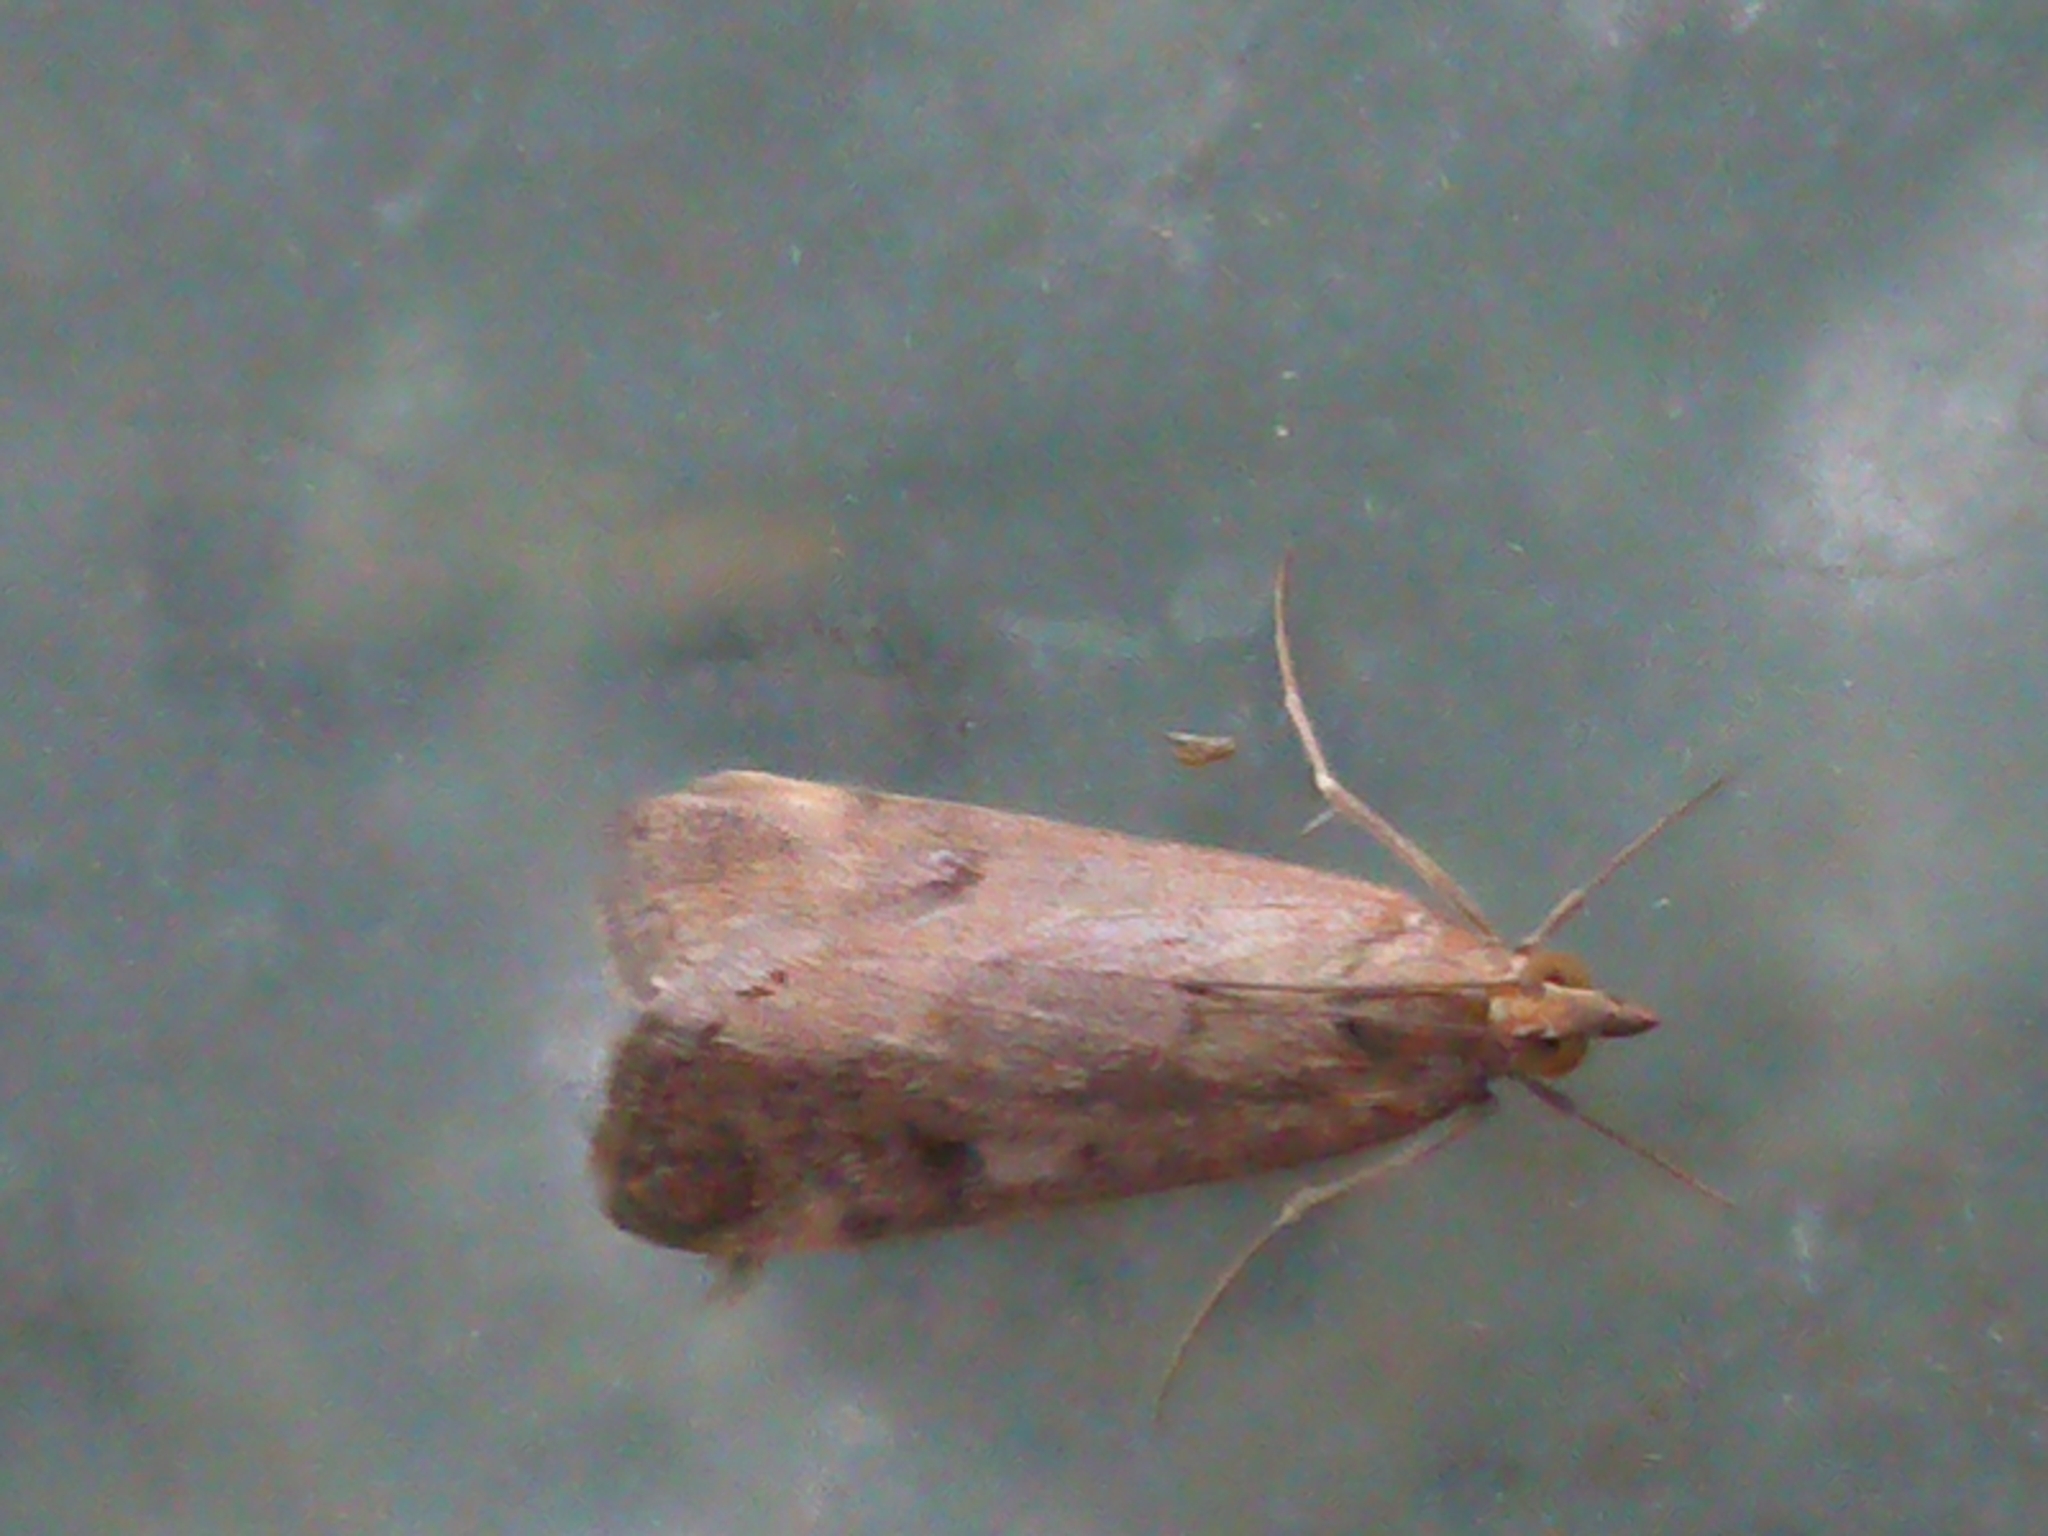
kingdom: Animalia
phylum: Arthropoda
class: Insecta
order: Lepidoptera
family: Crambidae
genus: Achyra
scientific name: Achyra affinitalis
